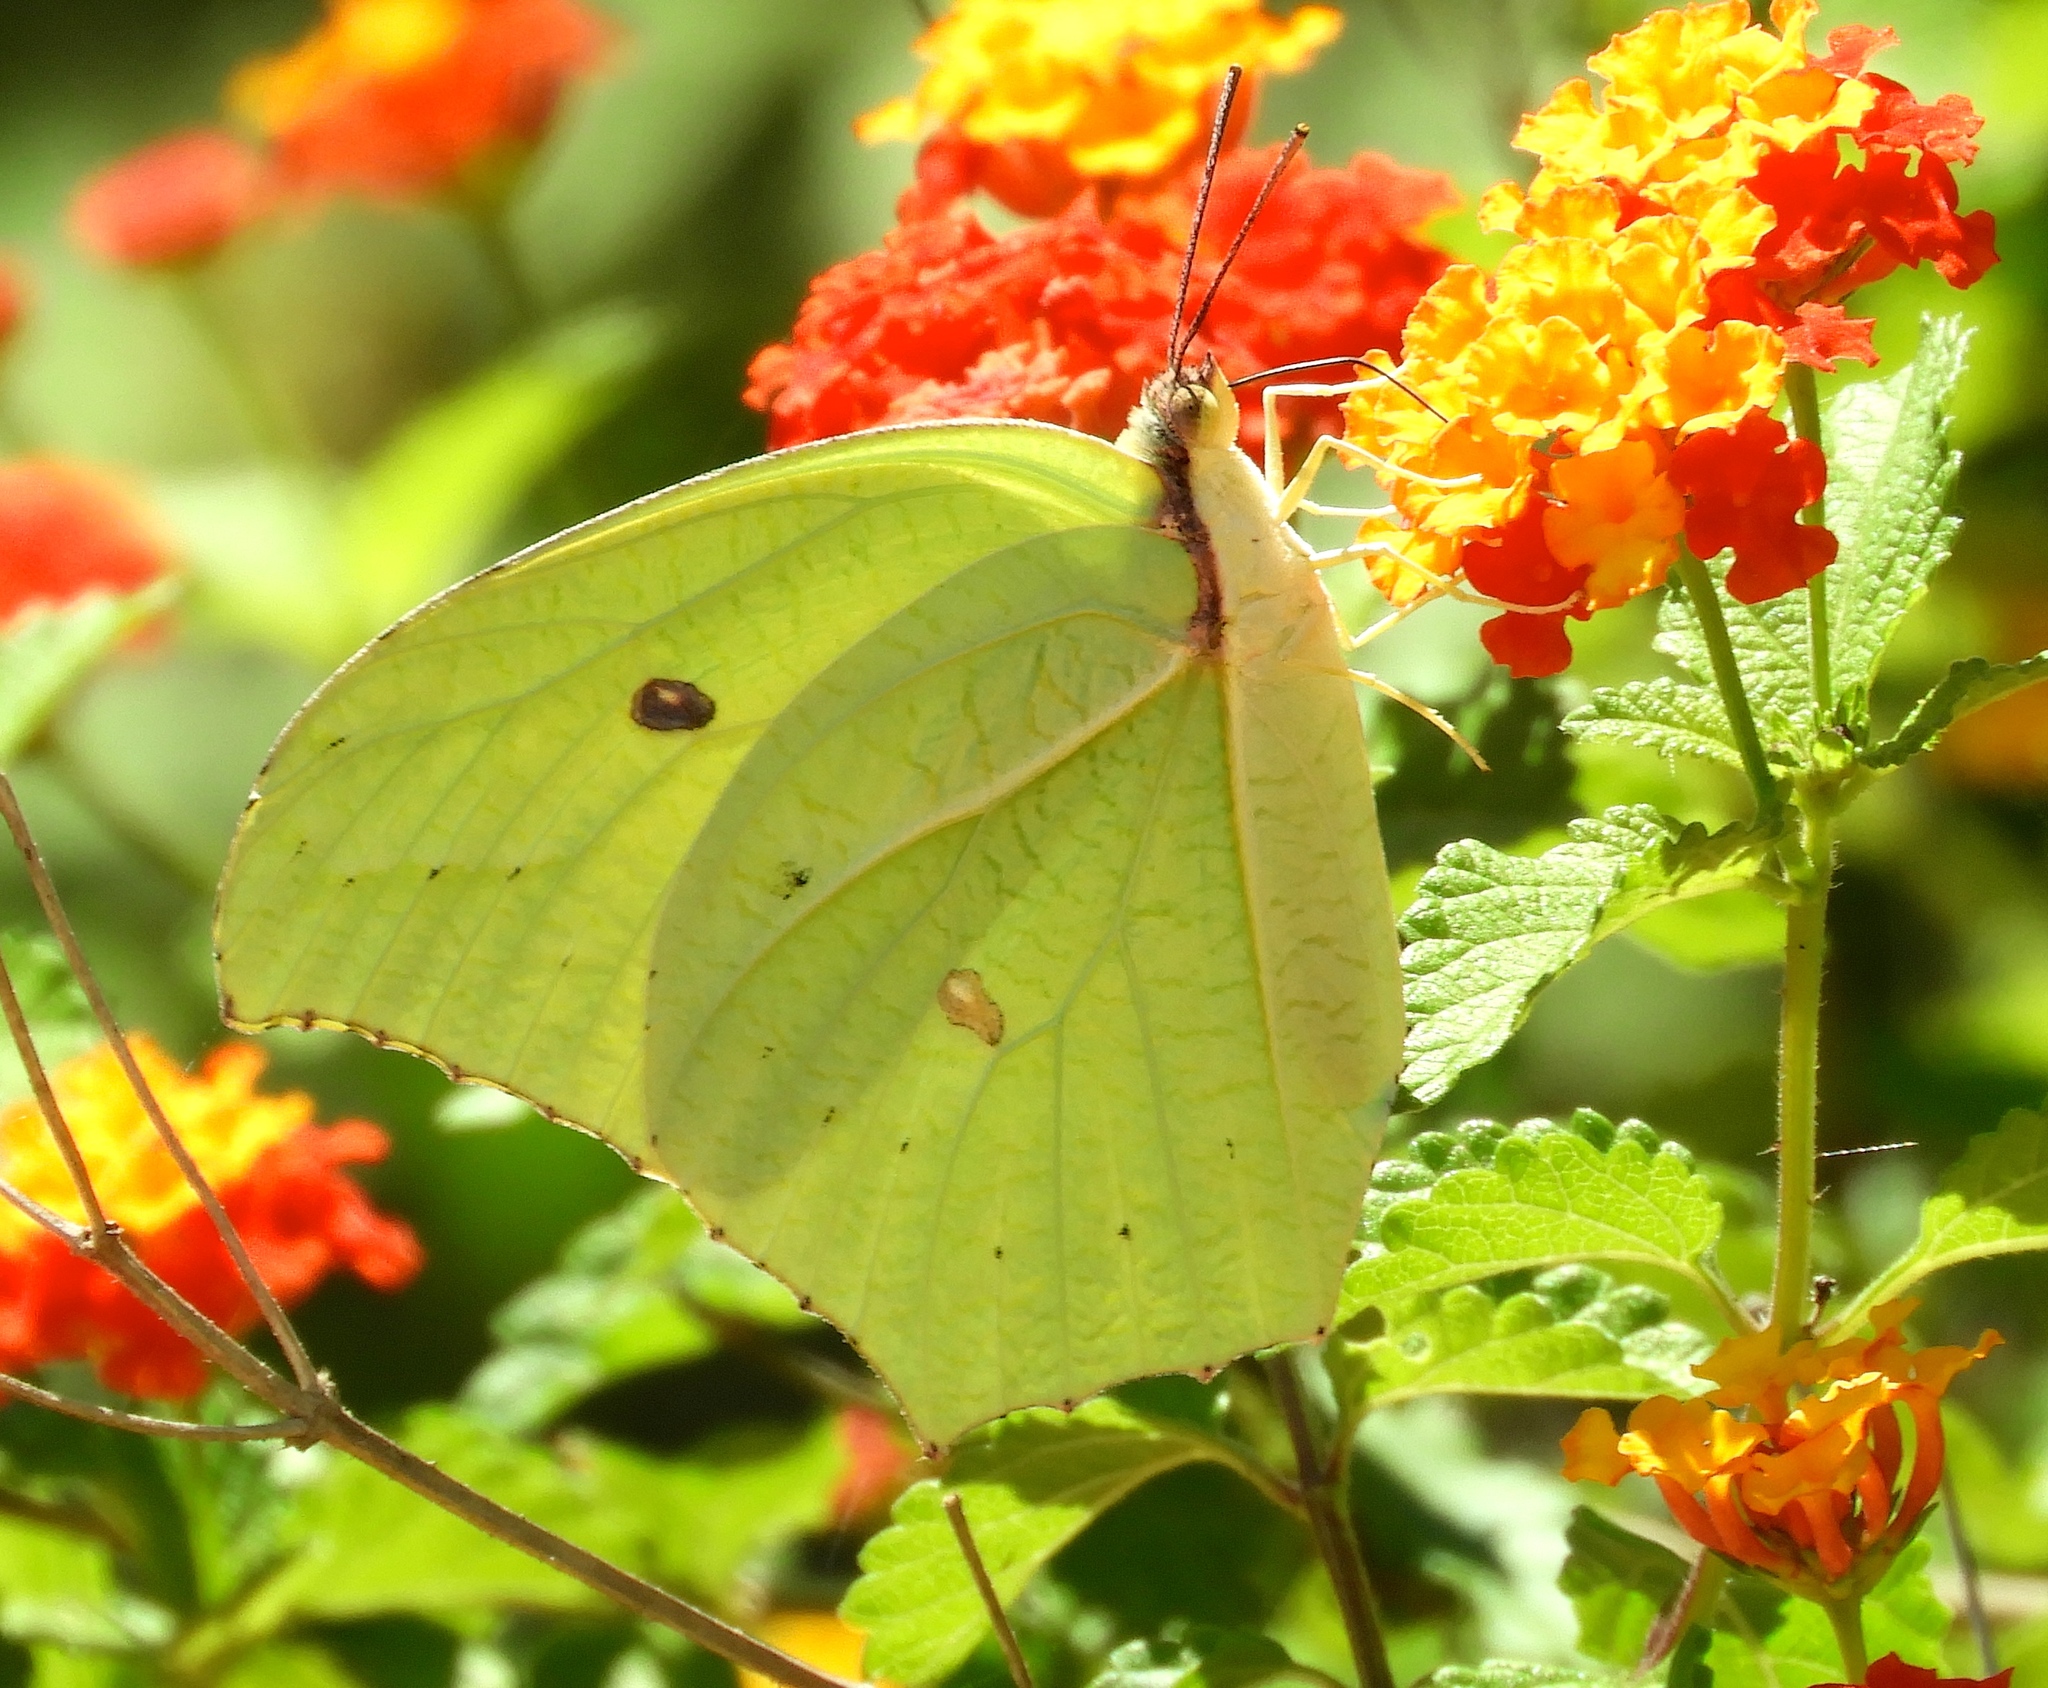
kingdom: Animalia
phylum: Arthropoda
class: Insecta
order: Lepidoptera
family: Pieridae
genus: Anteos
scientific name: Anteos maerula
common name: Angled sulphur
